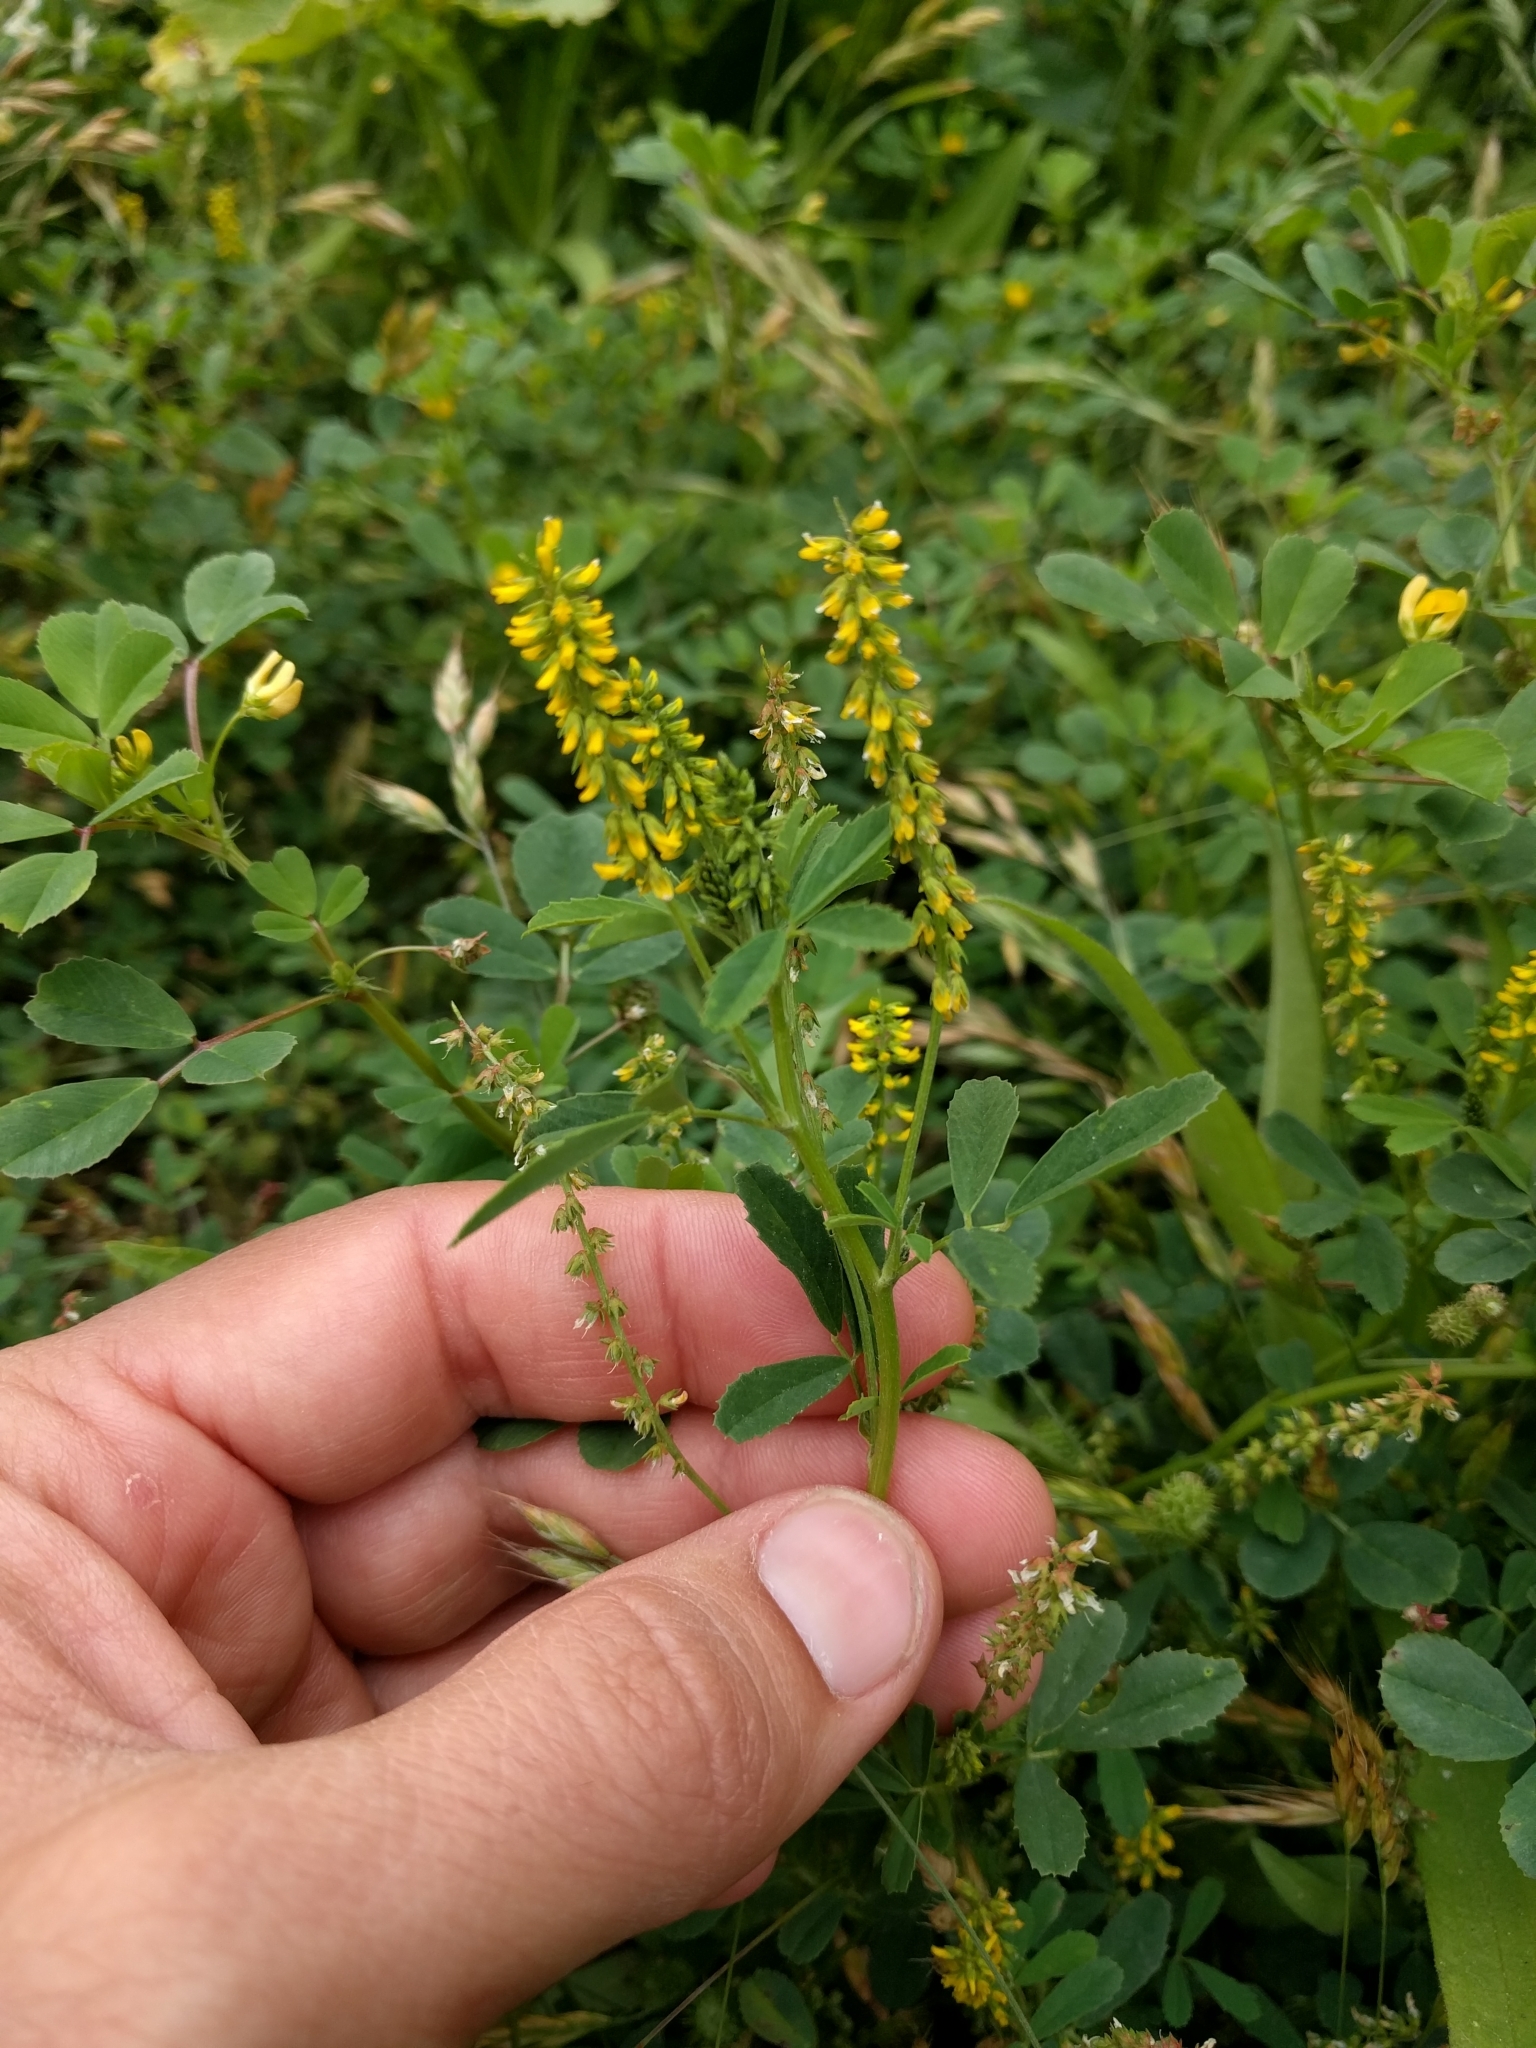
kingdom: Plantae
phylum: Tracheophyta
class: Magnoliopsida
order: Fabales
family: Fabaceae
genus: Melilotus
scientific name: Melilotus indicus
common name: Small melilot
